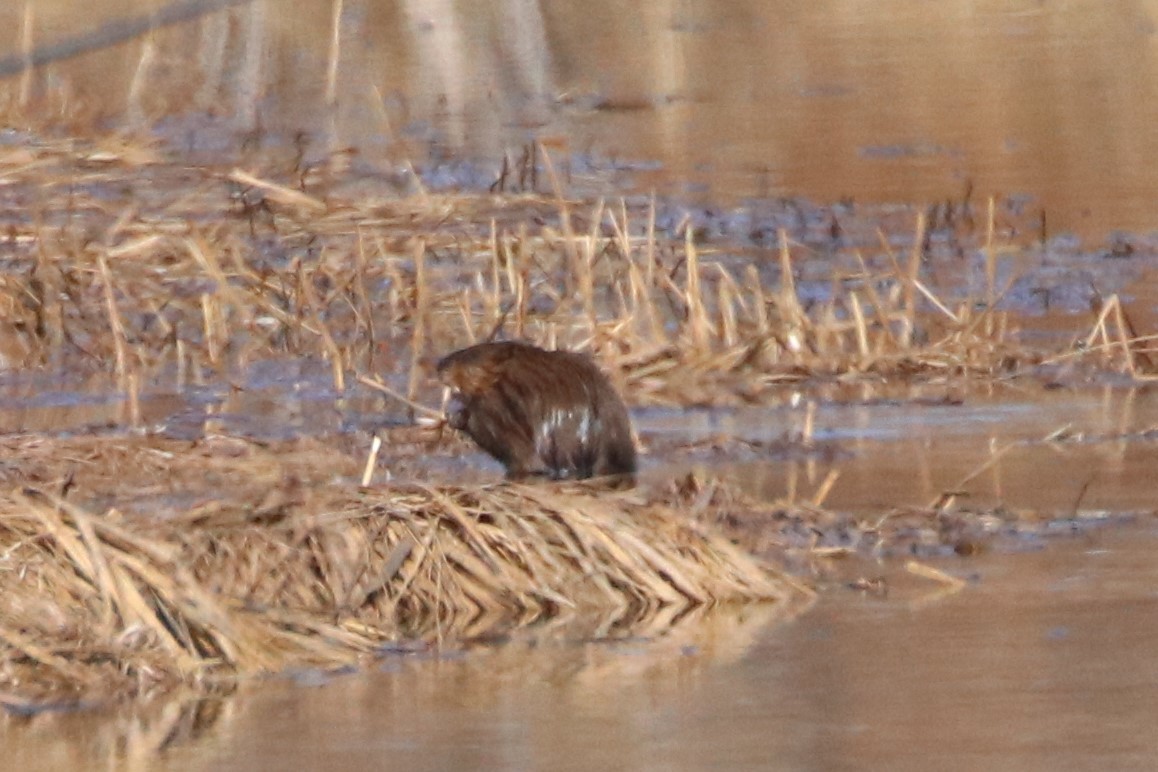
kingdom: Animalia
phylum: Chordata
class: Mammalia
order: Rodentia
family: Cricetidae
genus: Ondatra
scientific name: Ondatra zibethicus
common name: Muskrat
